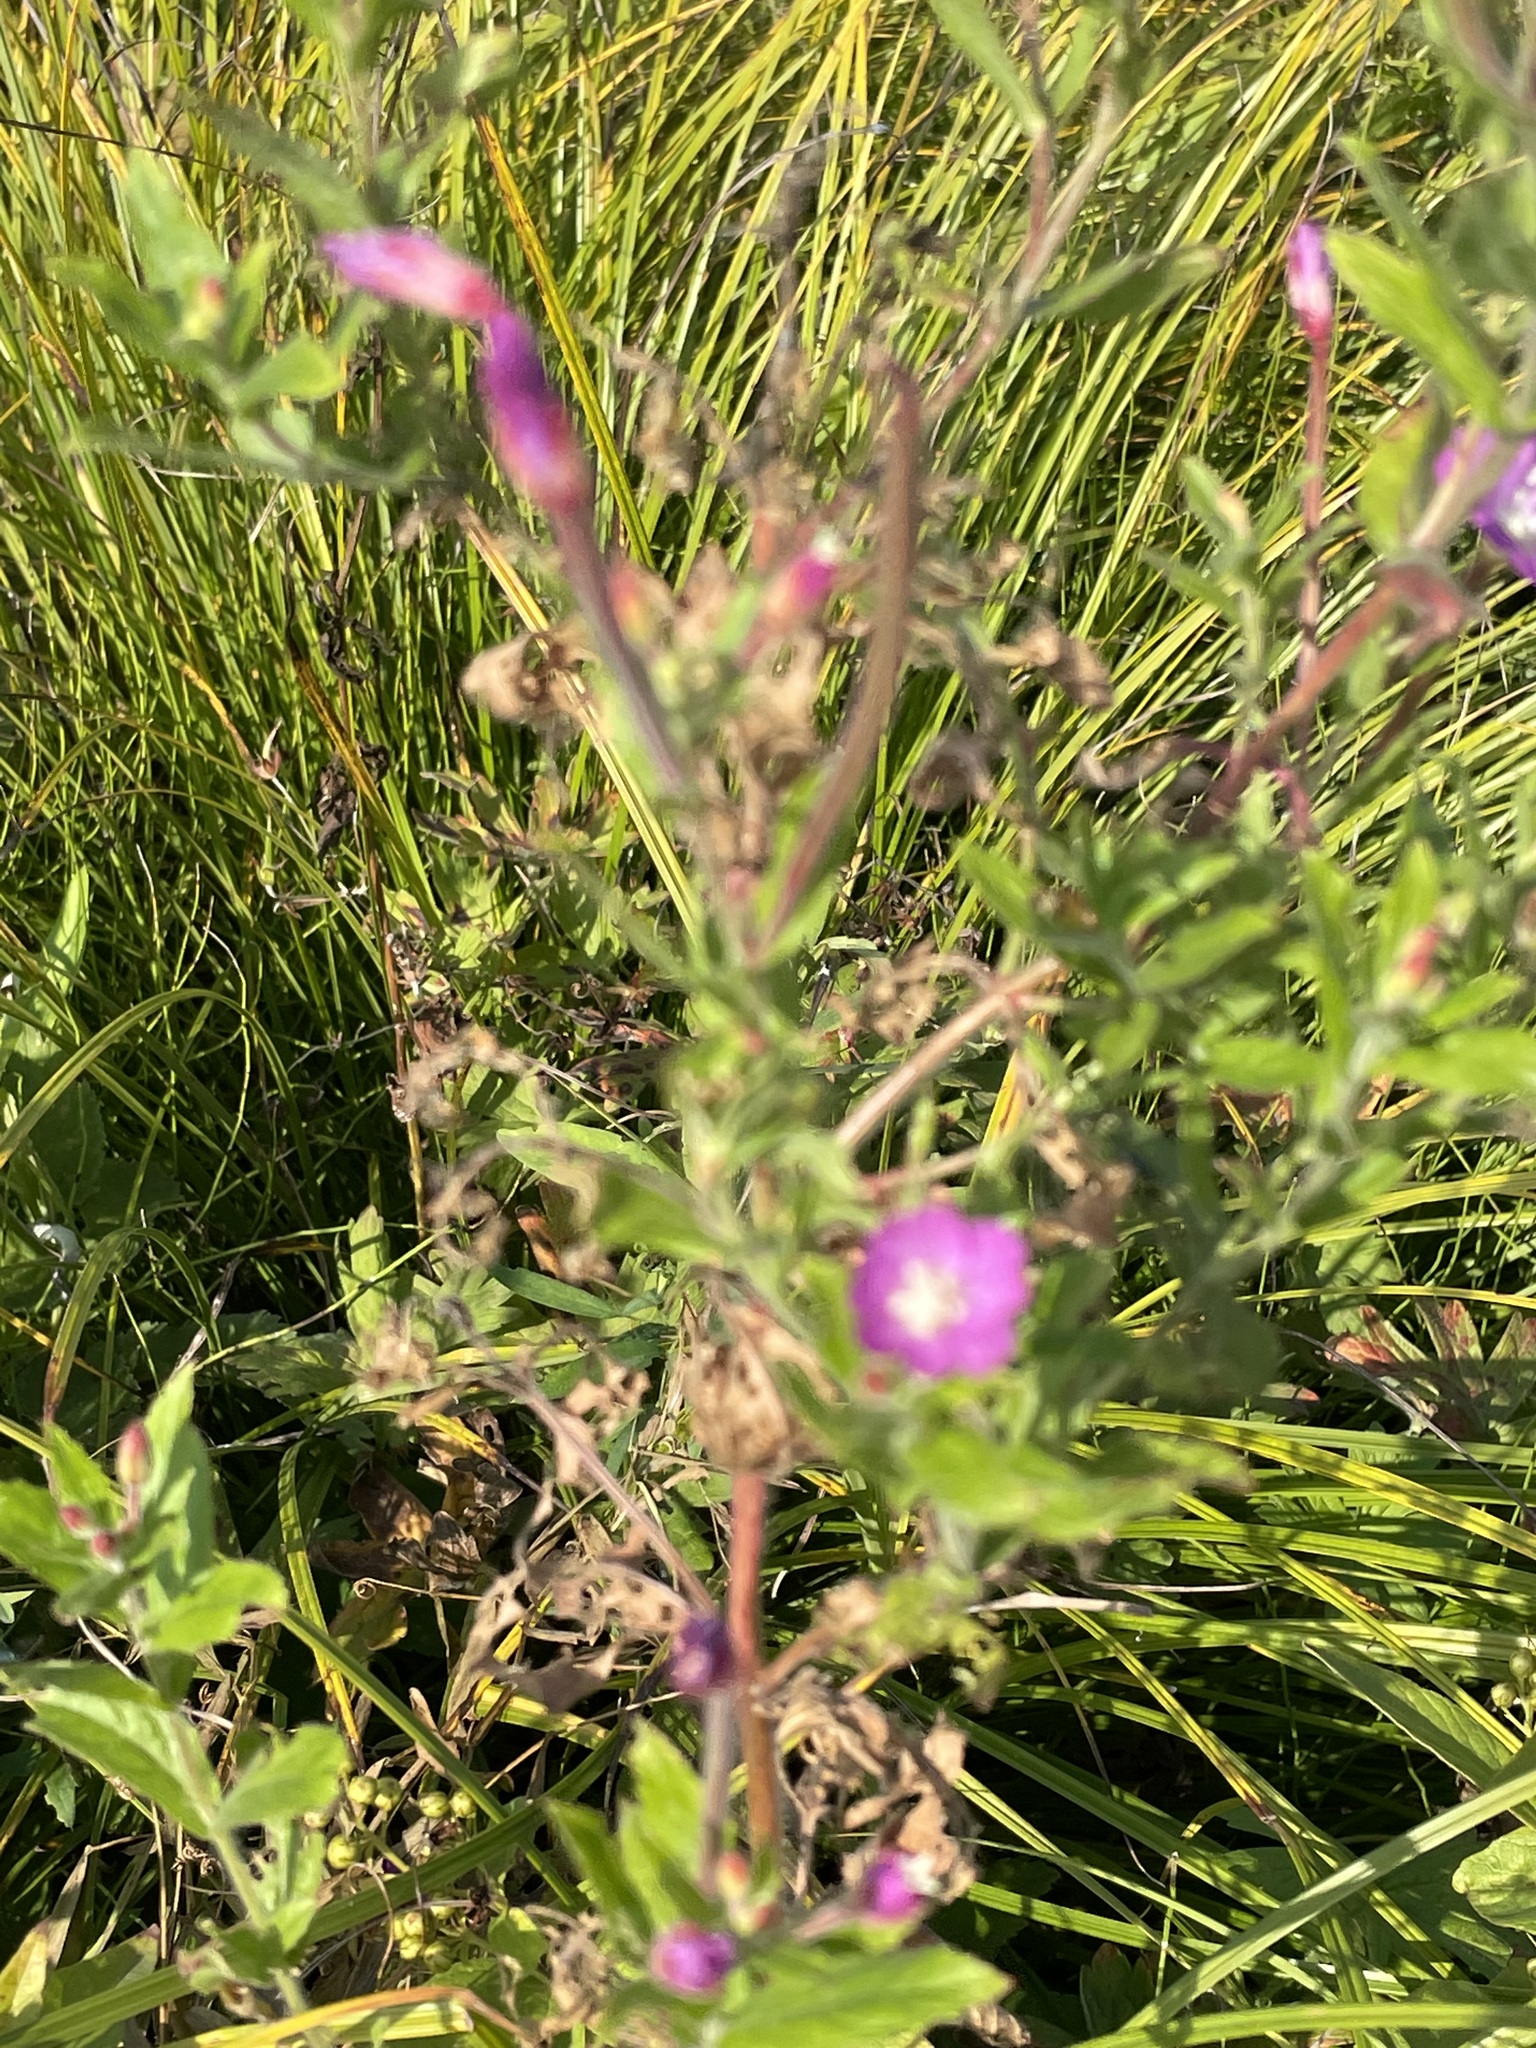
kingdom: Plantae
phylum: Tracheophyta
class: Magnoliopsida
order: Myrtales
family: Onagraceae
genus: Epilobium
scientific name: Epilobium hirsutum
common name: Great willowherb
